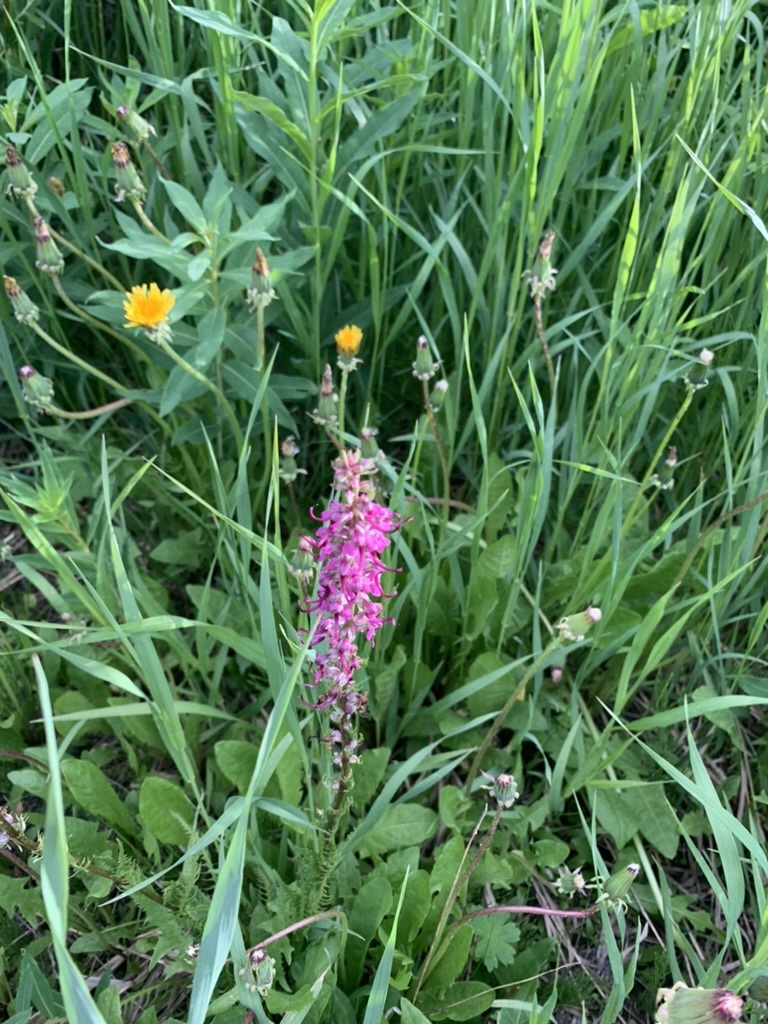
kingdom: Plantae
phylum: Tracheophyta
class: Magnoliopsida
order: Lamiales
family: Orobanchaceae
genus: Pedicularis
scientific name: Pedicularis groenlandica
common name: Elephant's-head
